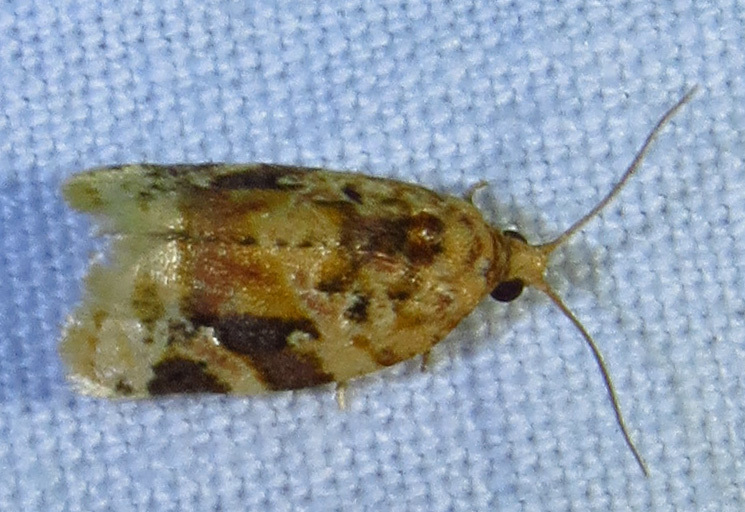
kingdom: Animalia
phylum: Arthropoda
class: Insecta
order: Lepidoptera
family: Tortricidae
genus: Argyrotaenia
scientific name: Argyrotaenia velutinana
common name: Red-banded leafroller moth
